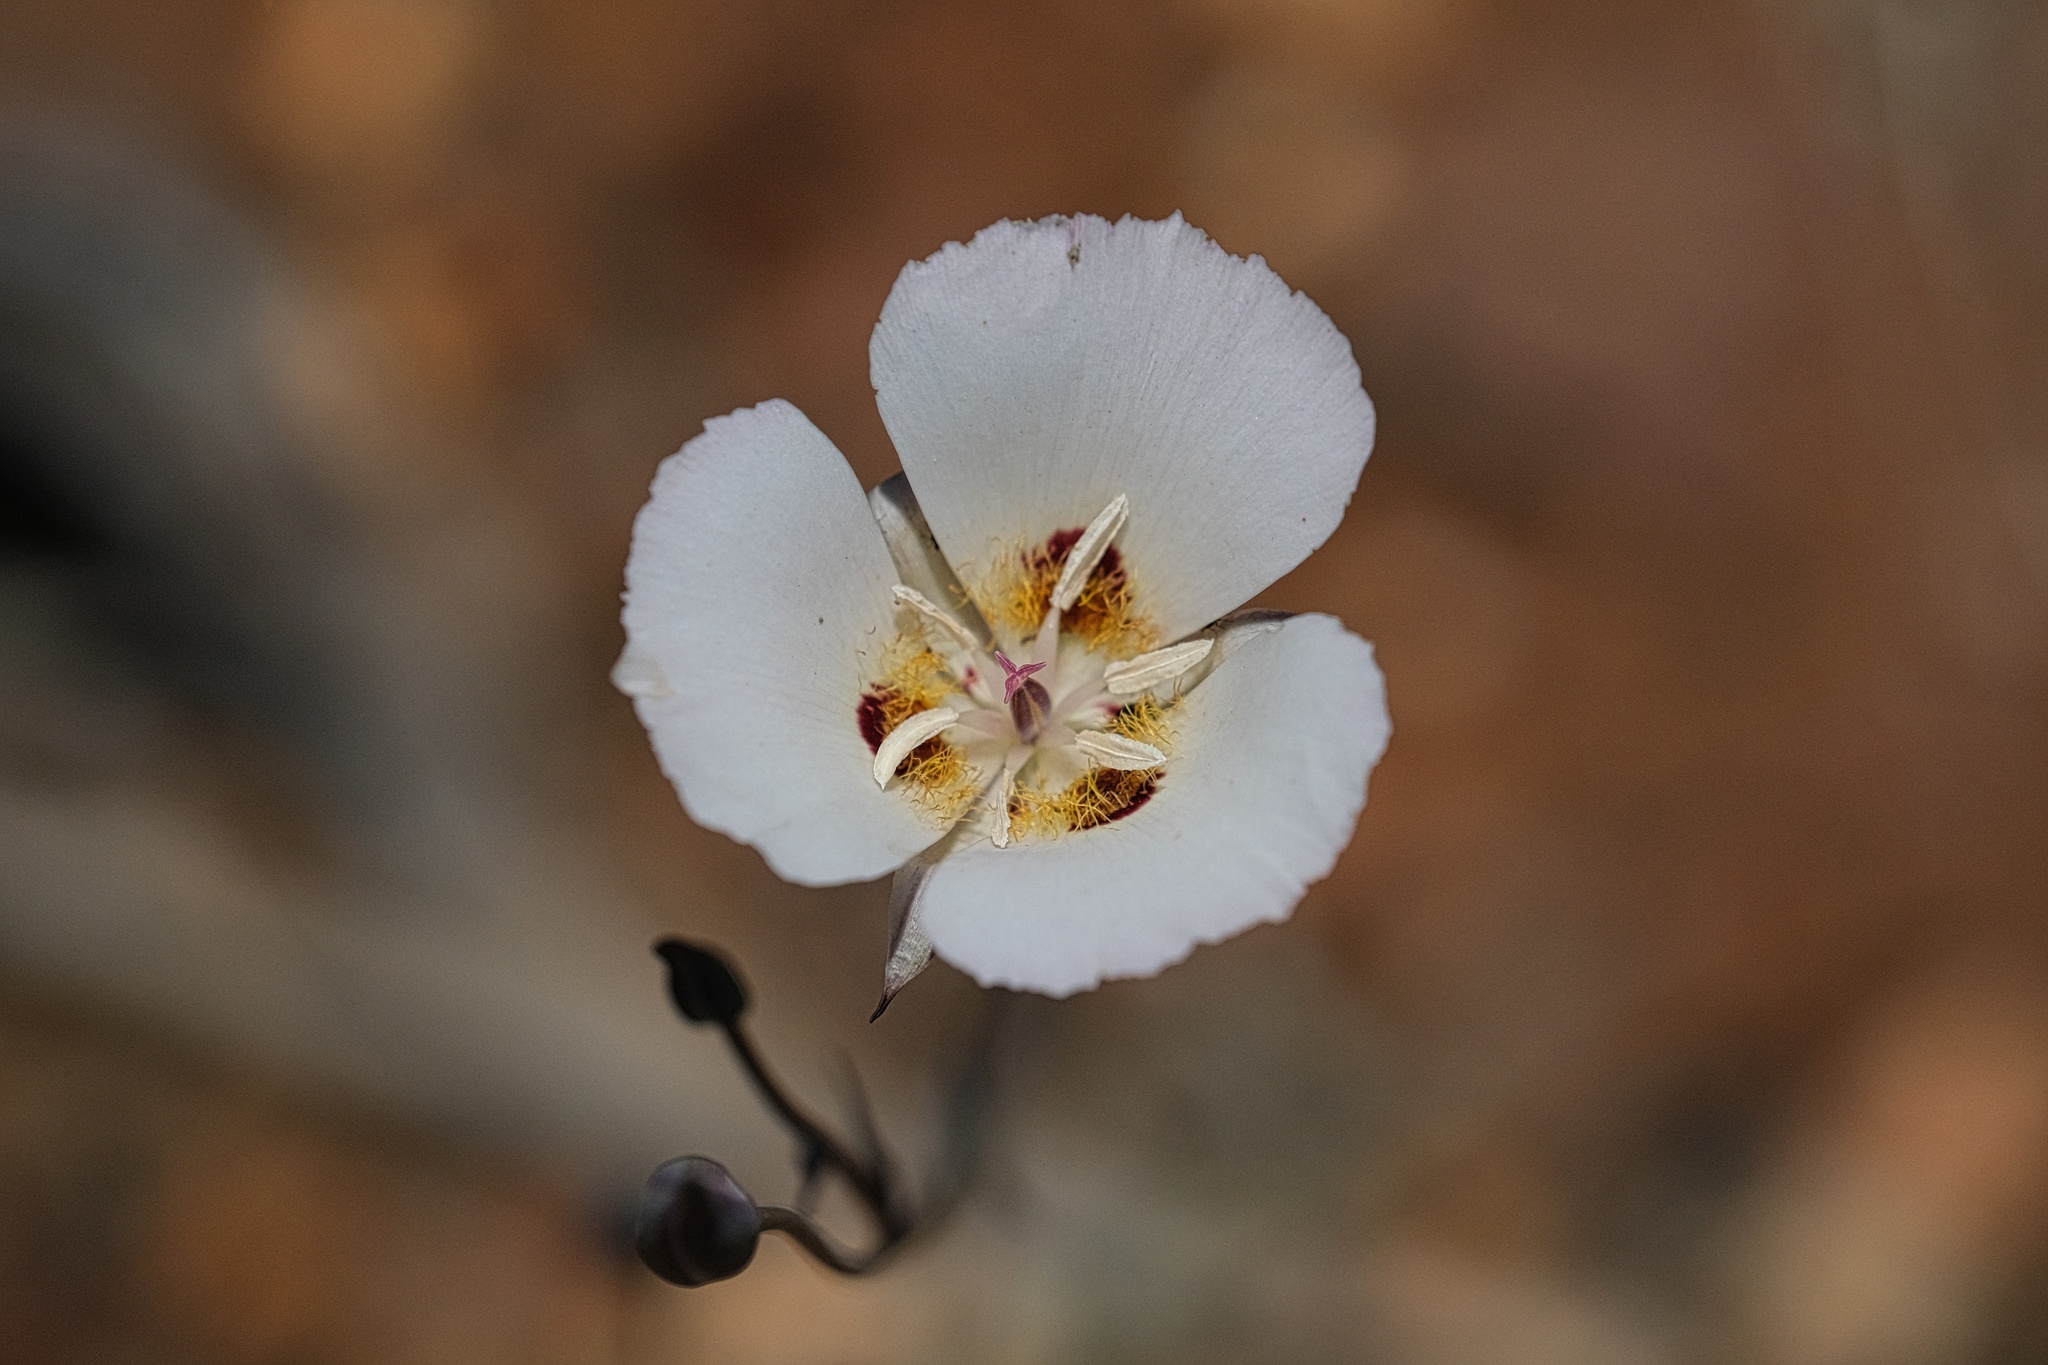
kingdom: Plantae
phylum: Tracheophyta
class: Liliopsida
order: Liliales
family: Liliaceae
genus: Calochortus
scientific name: Calochortus dunnii
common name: Dunn's mariposa-lily
